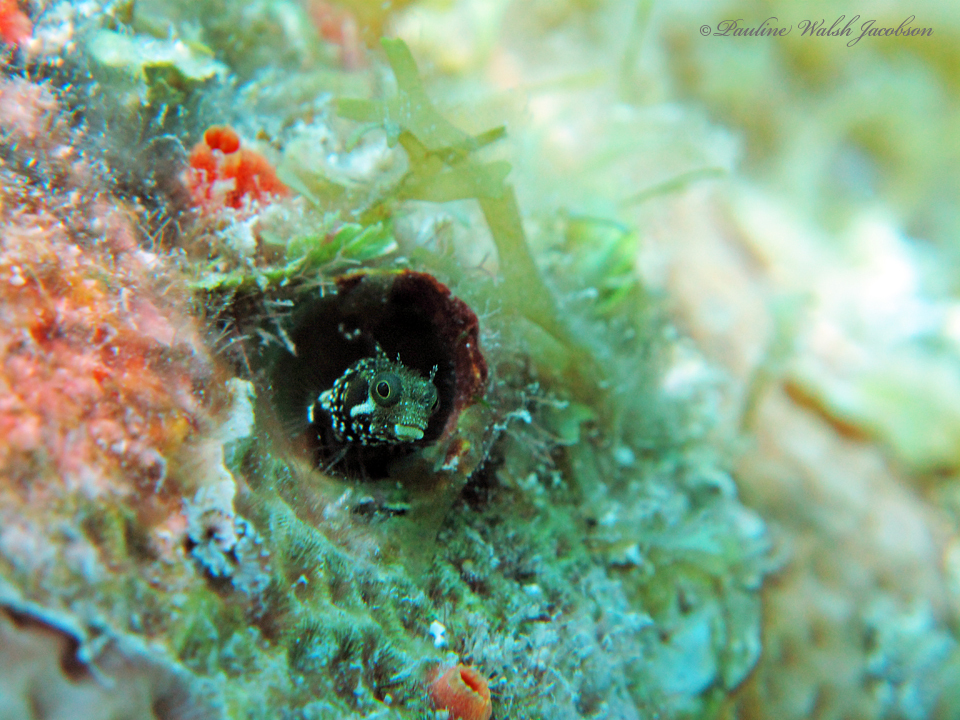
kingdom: Animalia
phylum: Chordata
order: Perciformes
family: Chaenopsidae
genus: Acanthemblemaria
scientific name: Acanthemblemaria spinosa
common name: Spinyhead blenny
